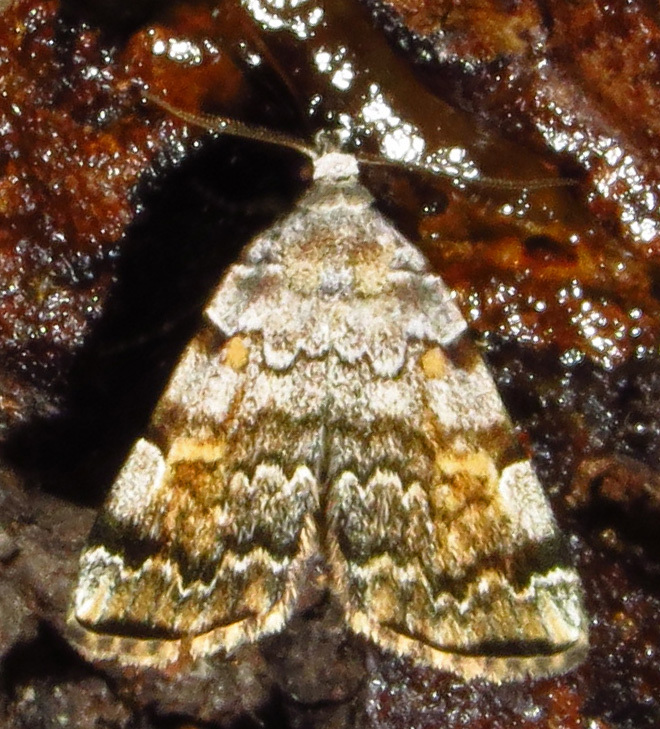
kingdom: Animalia
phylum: Arthropoda
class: Insecta
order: Lepidoptera
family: Erebidae
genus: Idia
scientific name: Idia americalis
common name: American idia moth
